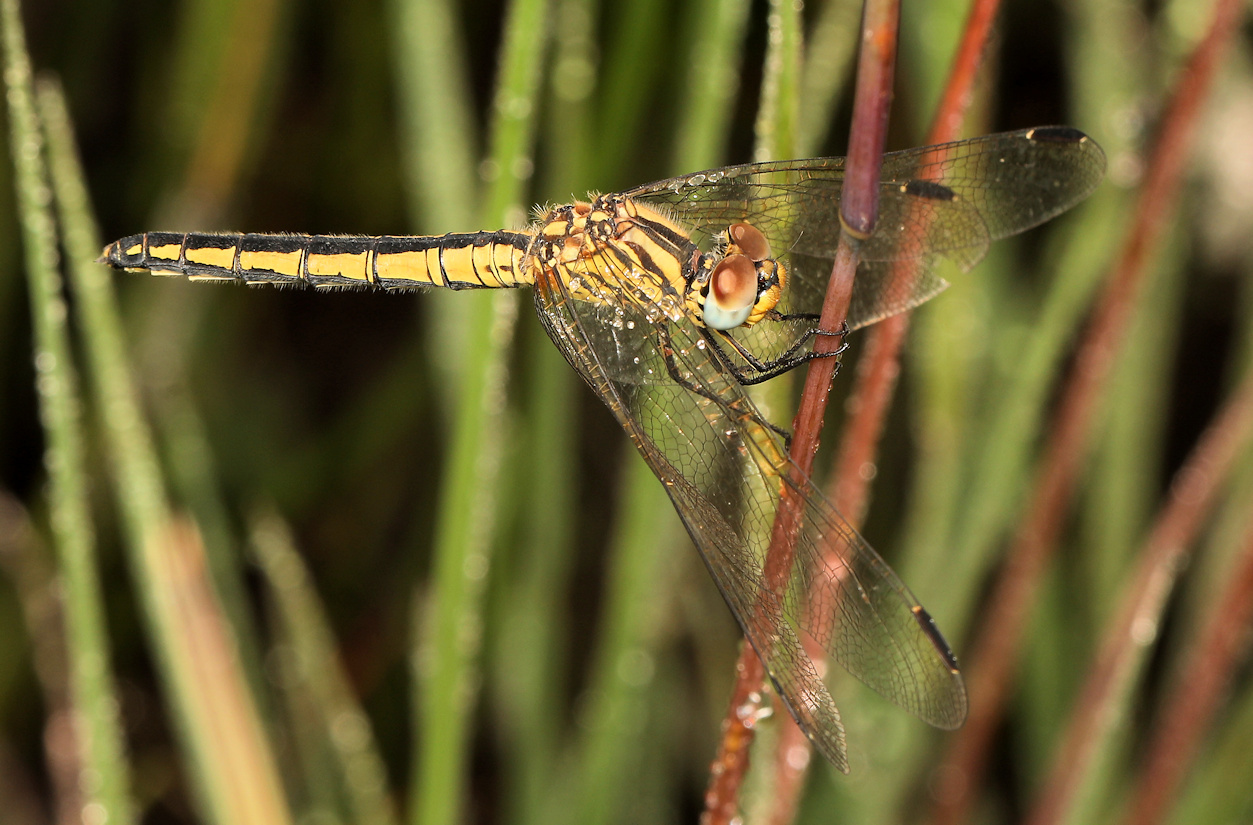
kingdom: Animalia
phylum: Arthropoda
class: Insecta
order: Odonata
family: Libellulidae
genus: Trithemis
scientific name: Trithemis dorsalis
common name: Highland dropwing
